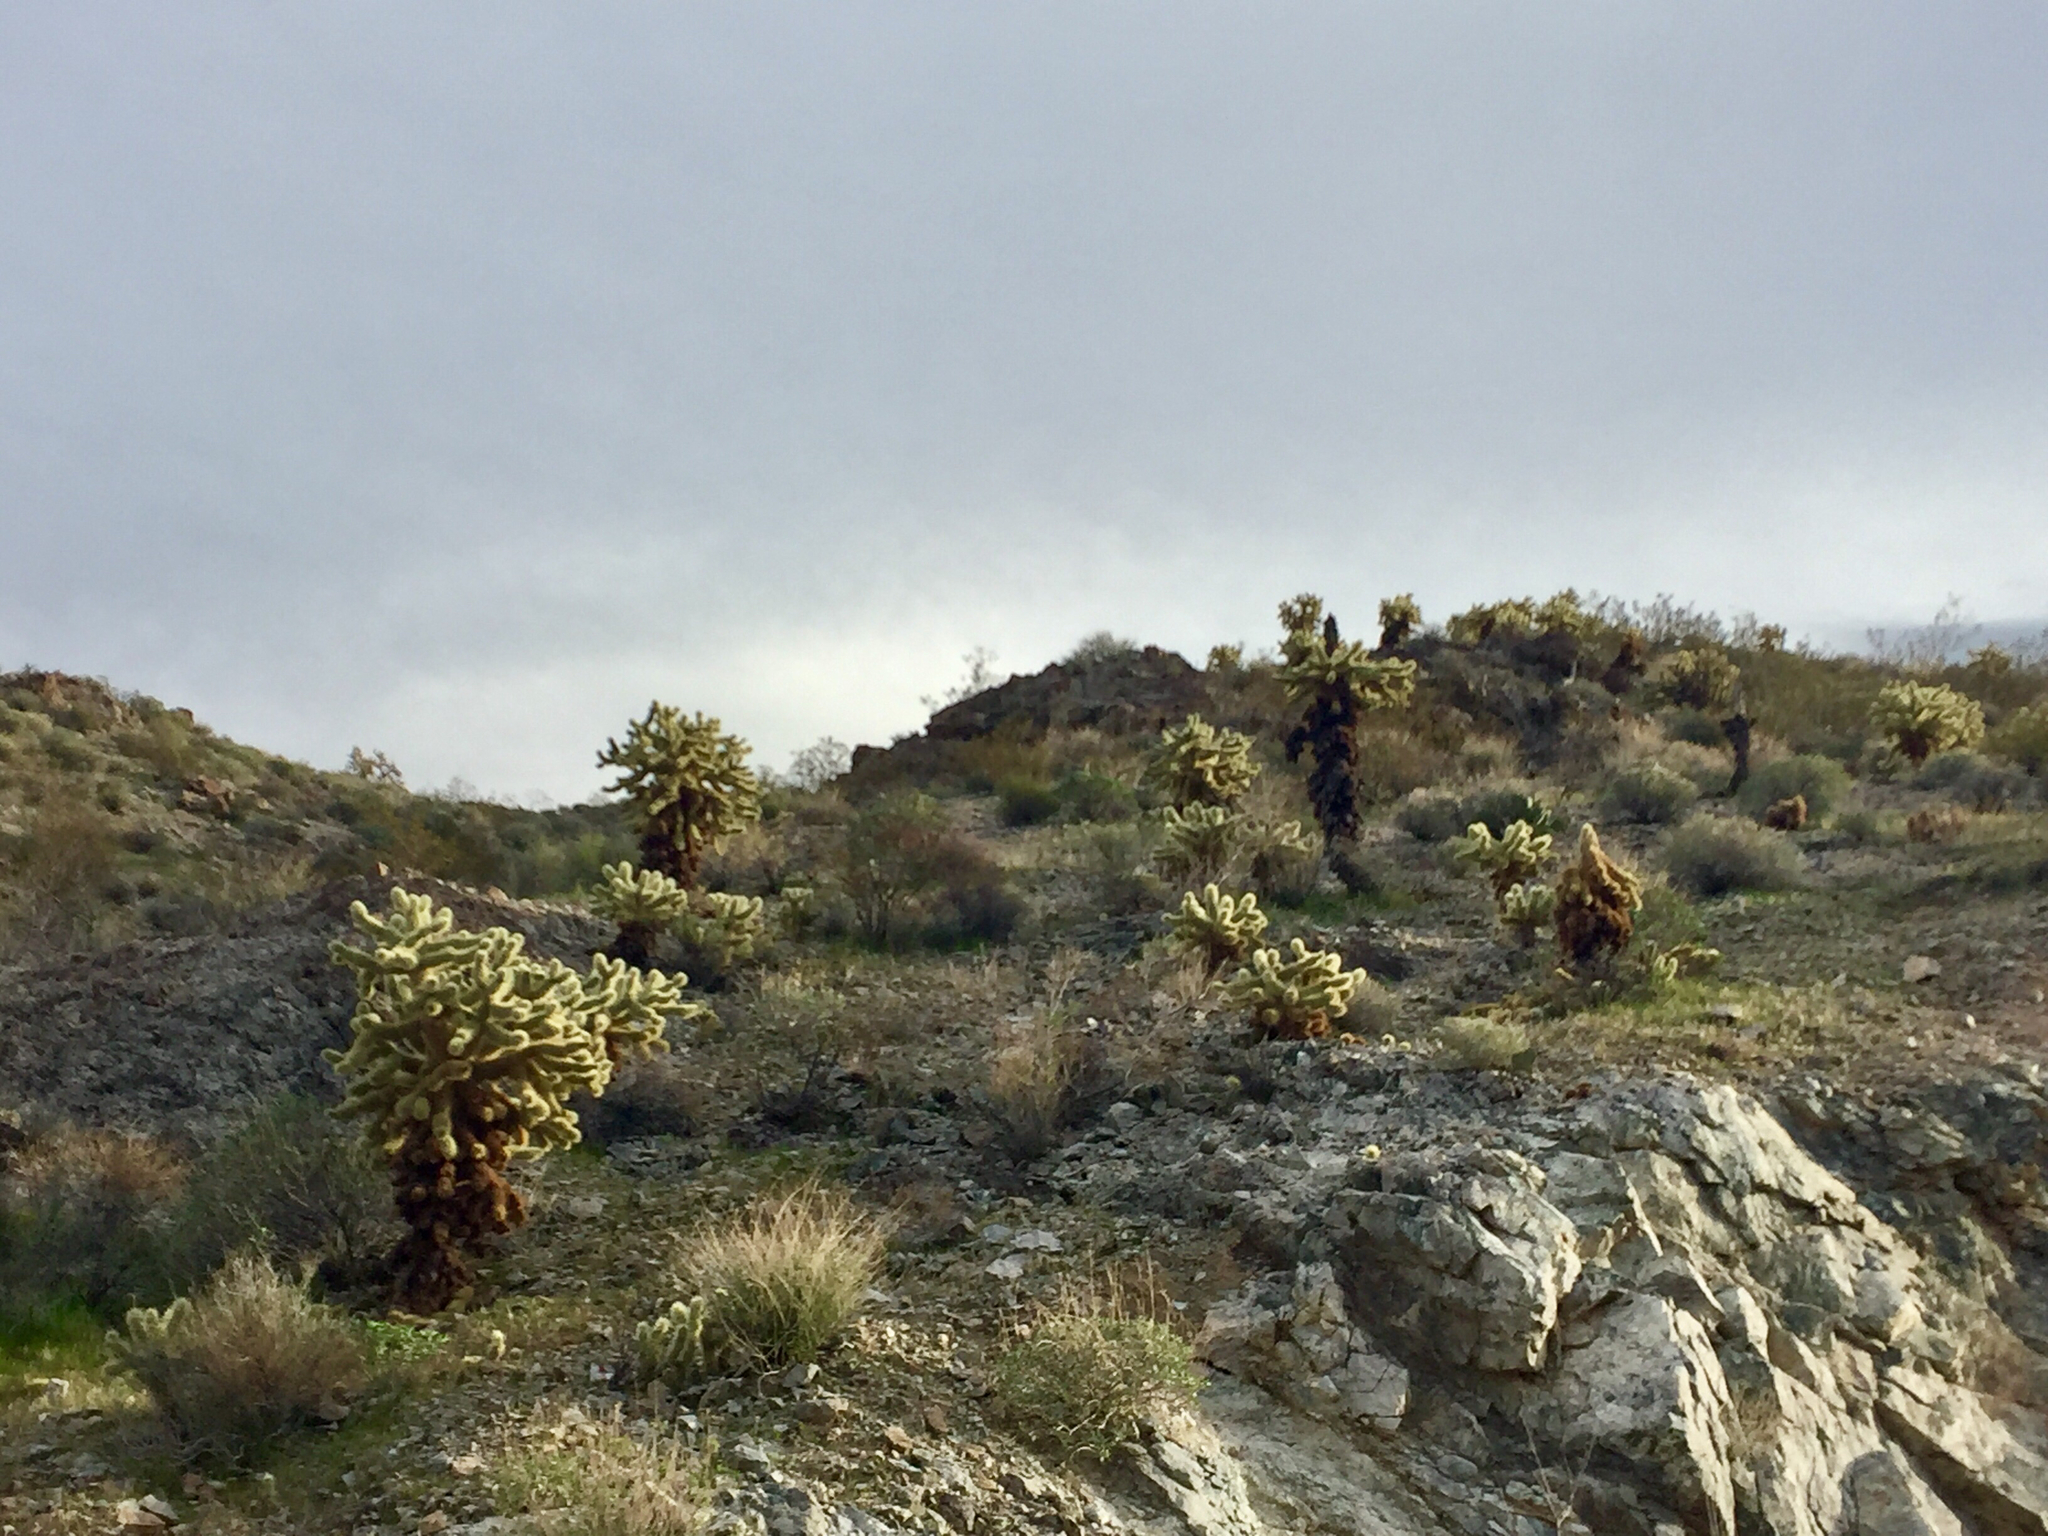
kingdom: Plantae
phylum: Tracheophyta
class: Magnoliopsida
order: Caryophyllales
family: Cactaceae
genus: Cylindropuntia
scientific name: Cylindropuntia fosbergii
